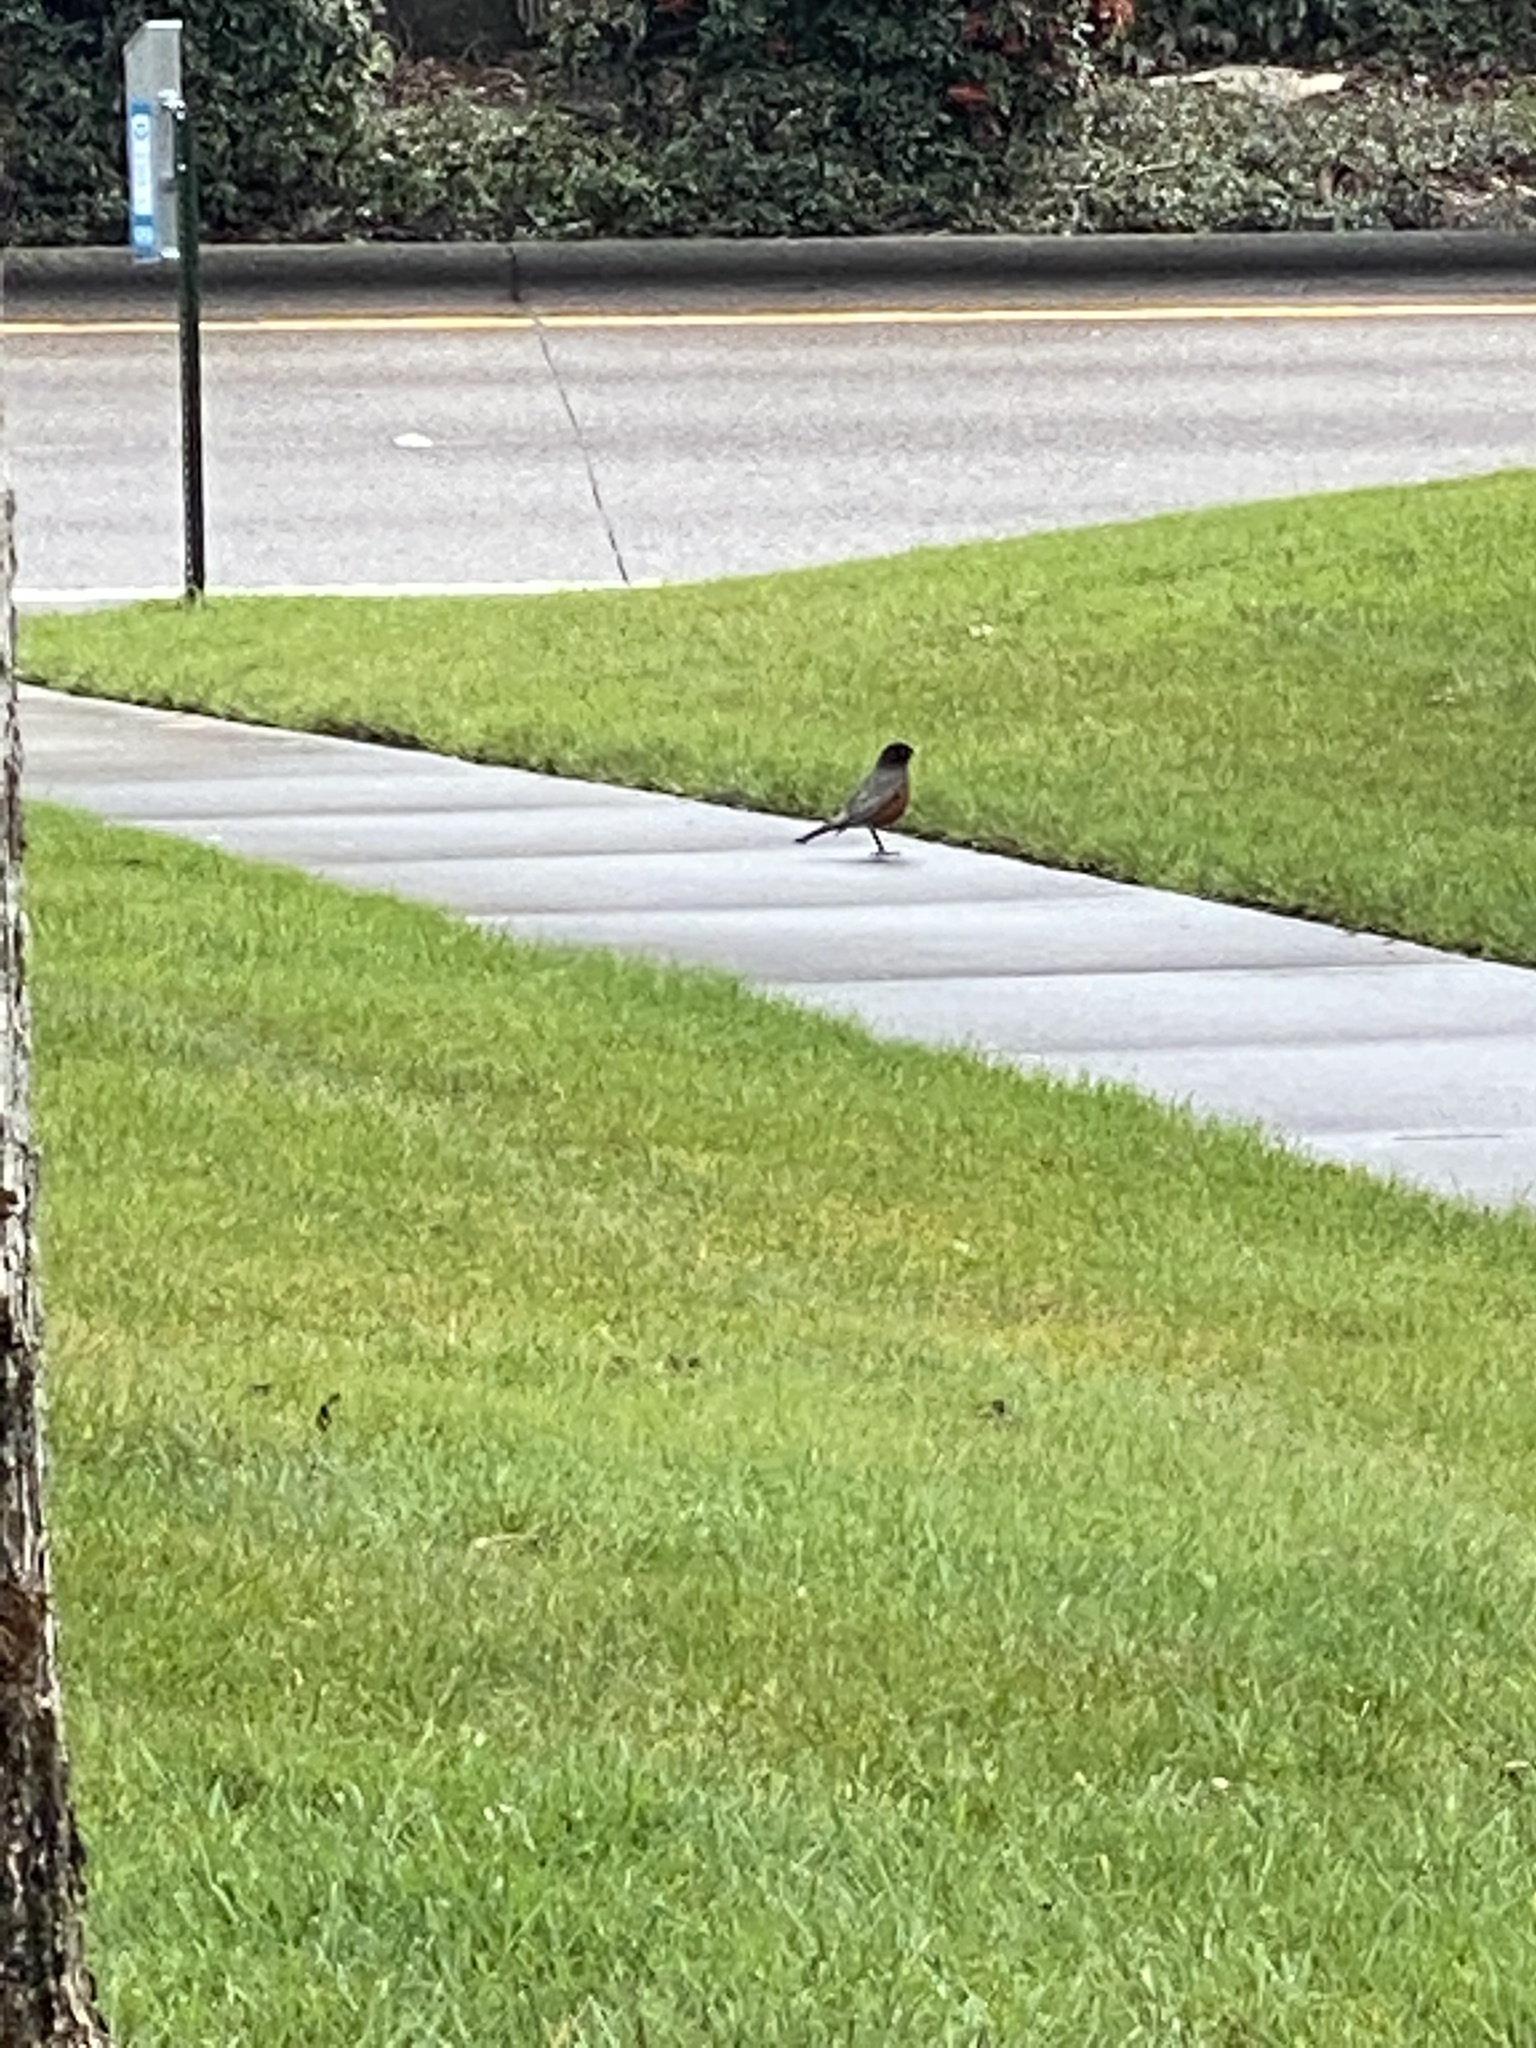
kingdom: Animalia
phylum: Chordata
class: Aves
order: Passeriformes
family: Turdidae
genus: Turdus
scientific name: Turdus migratorius
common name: American robin
